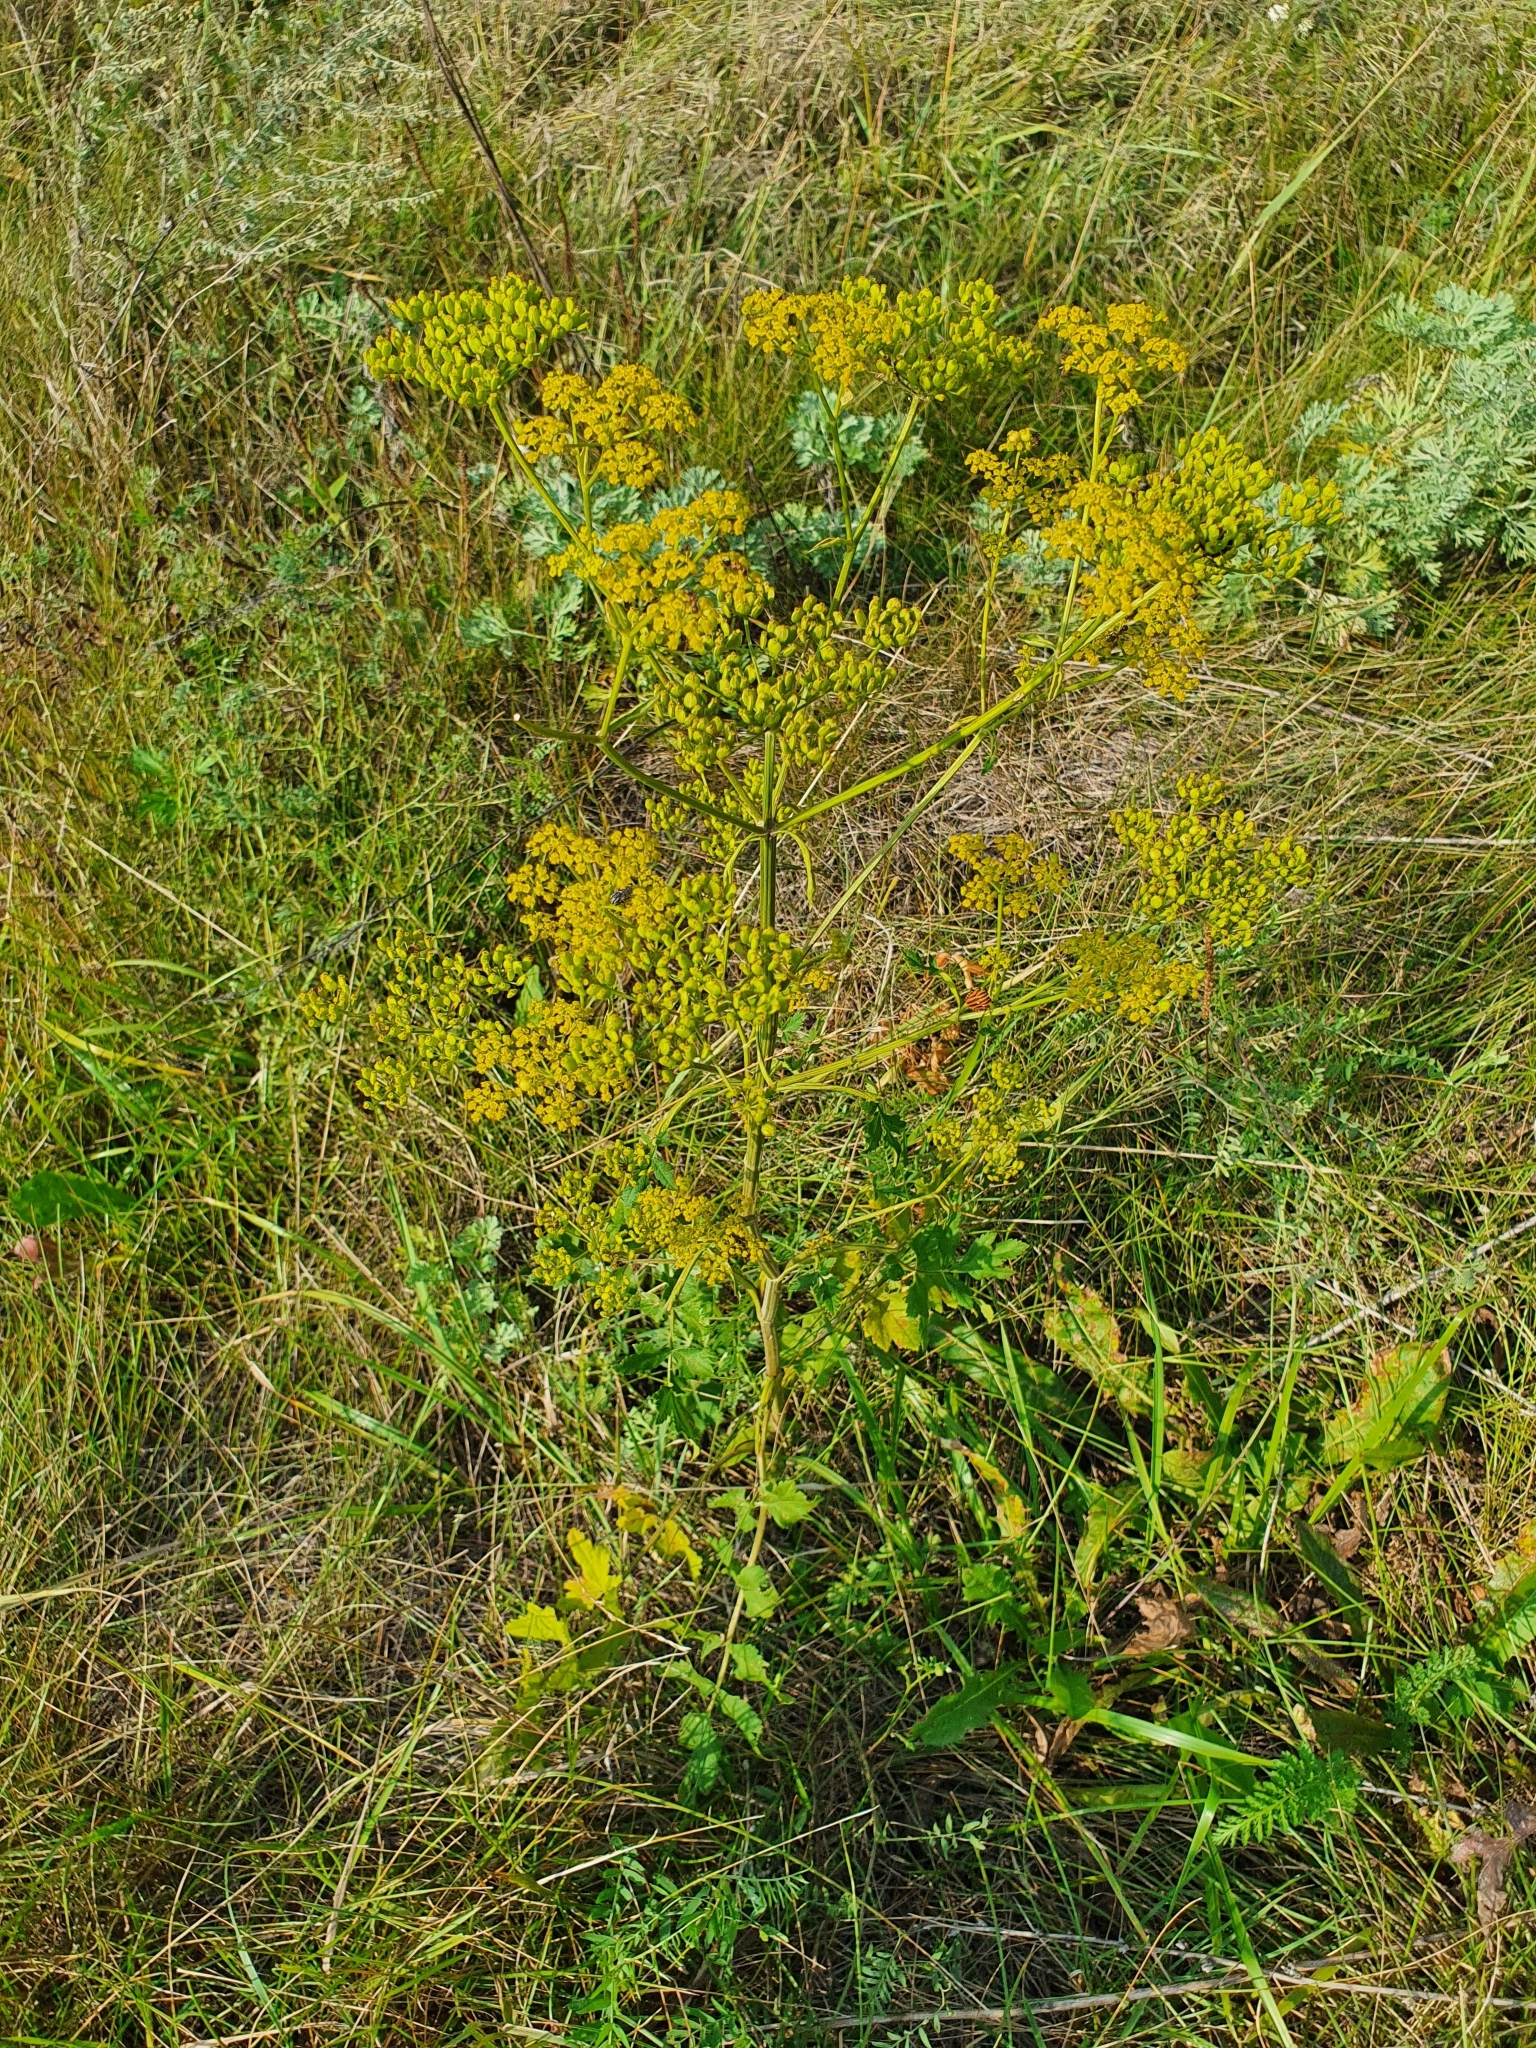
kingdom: Plantae
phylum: Tracheophyta
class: Magnoliopsida
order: Apiales
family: Apiaceae
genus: Pastinaca
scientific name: Pastinaca sativa
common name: Wild parsnip
